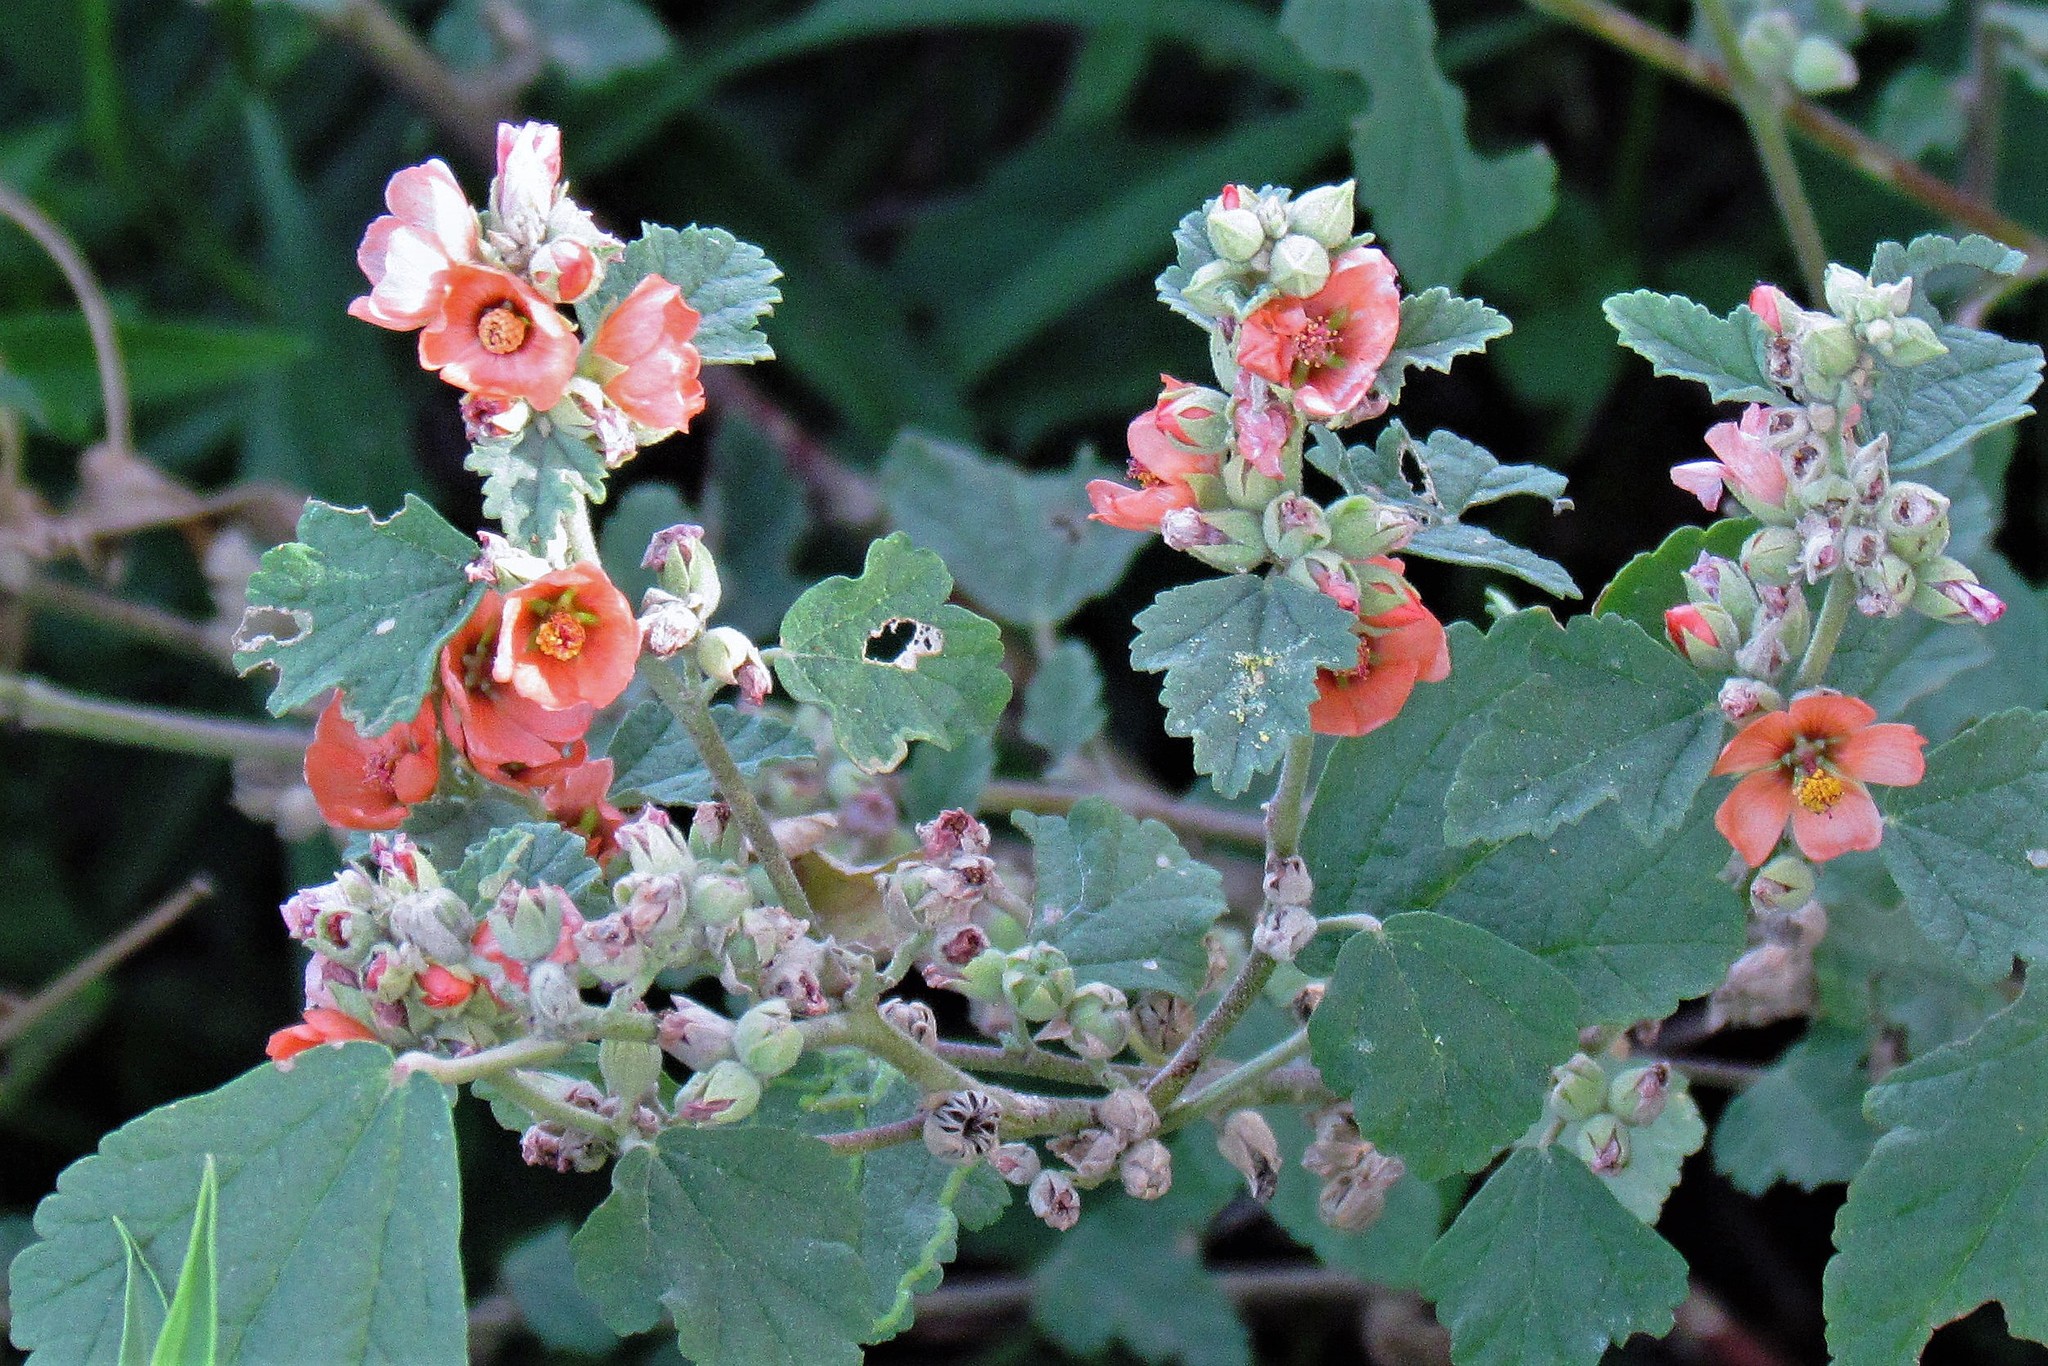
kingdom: Plantae
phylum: Tracheophyta
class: Magnoliopsida
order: Malvales
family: Malvaceae
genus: Sphaeralcea
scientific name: Sphaeralcea cordobensis
